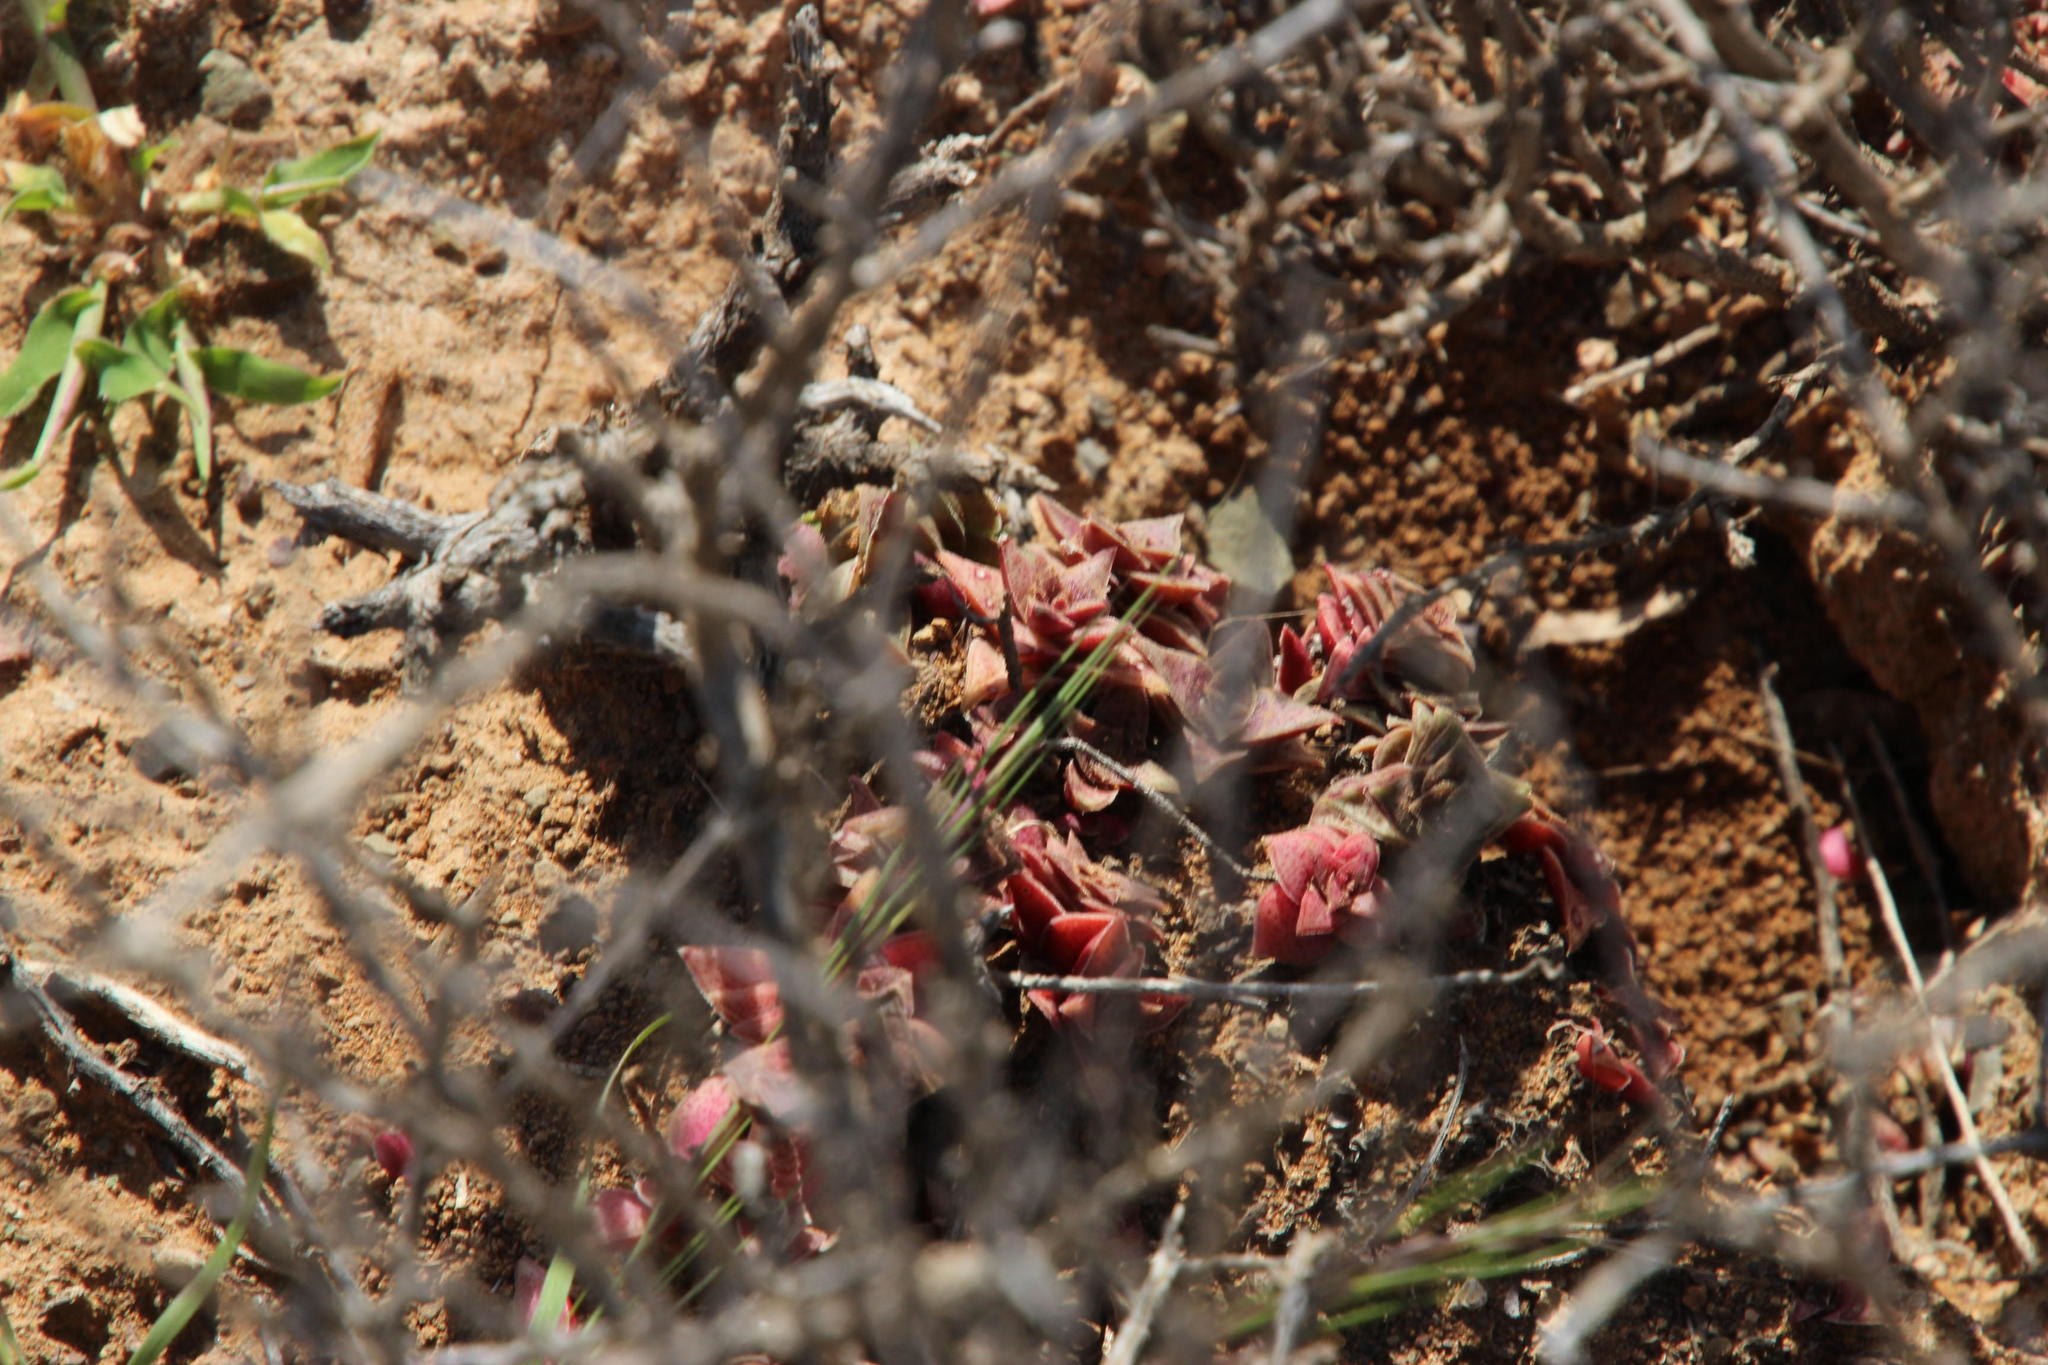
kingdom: Plantae
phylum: Tracheophyta
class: Magnoliopsida
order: Saxifragales
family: Crassulaceae
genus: Crassula
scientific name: Crassula capitella
